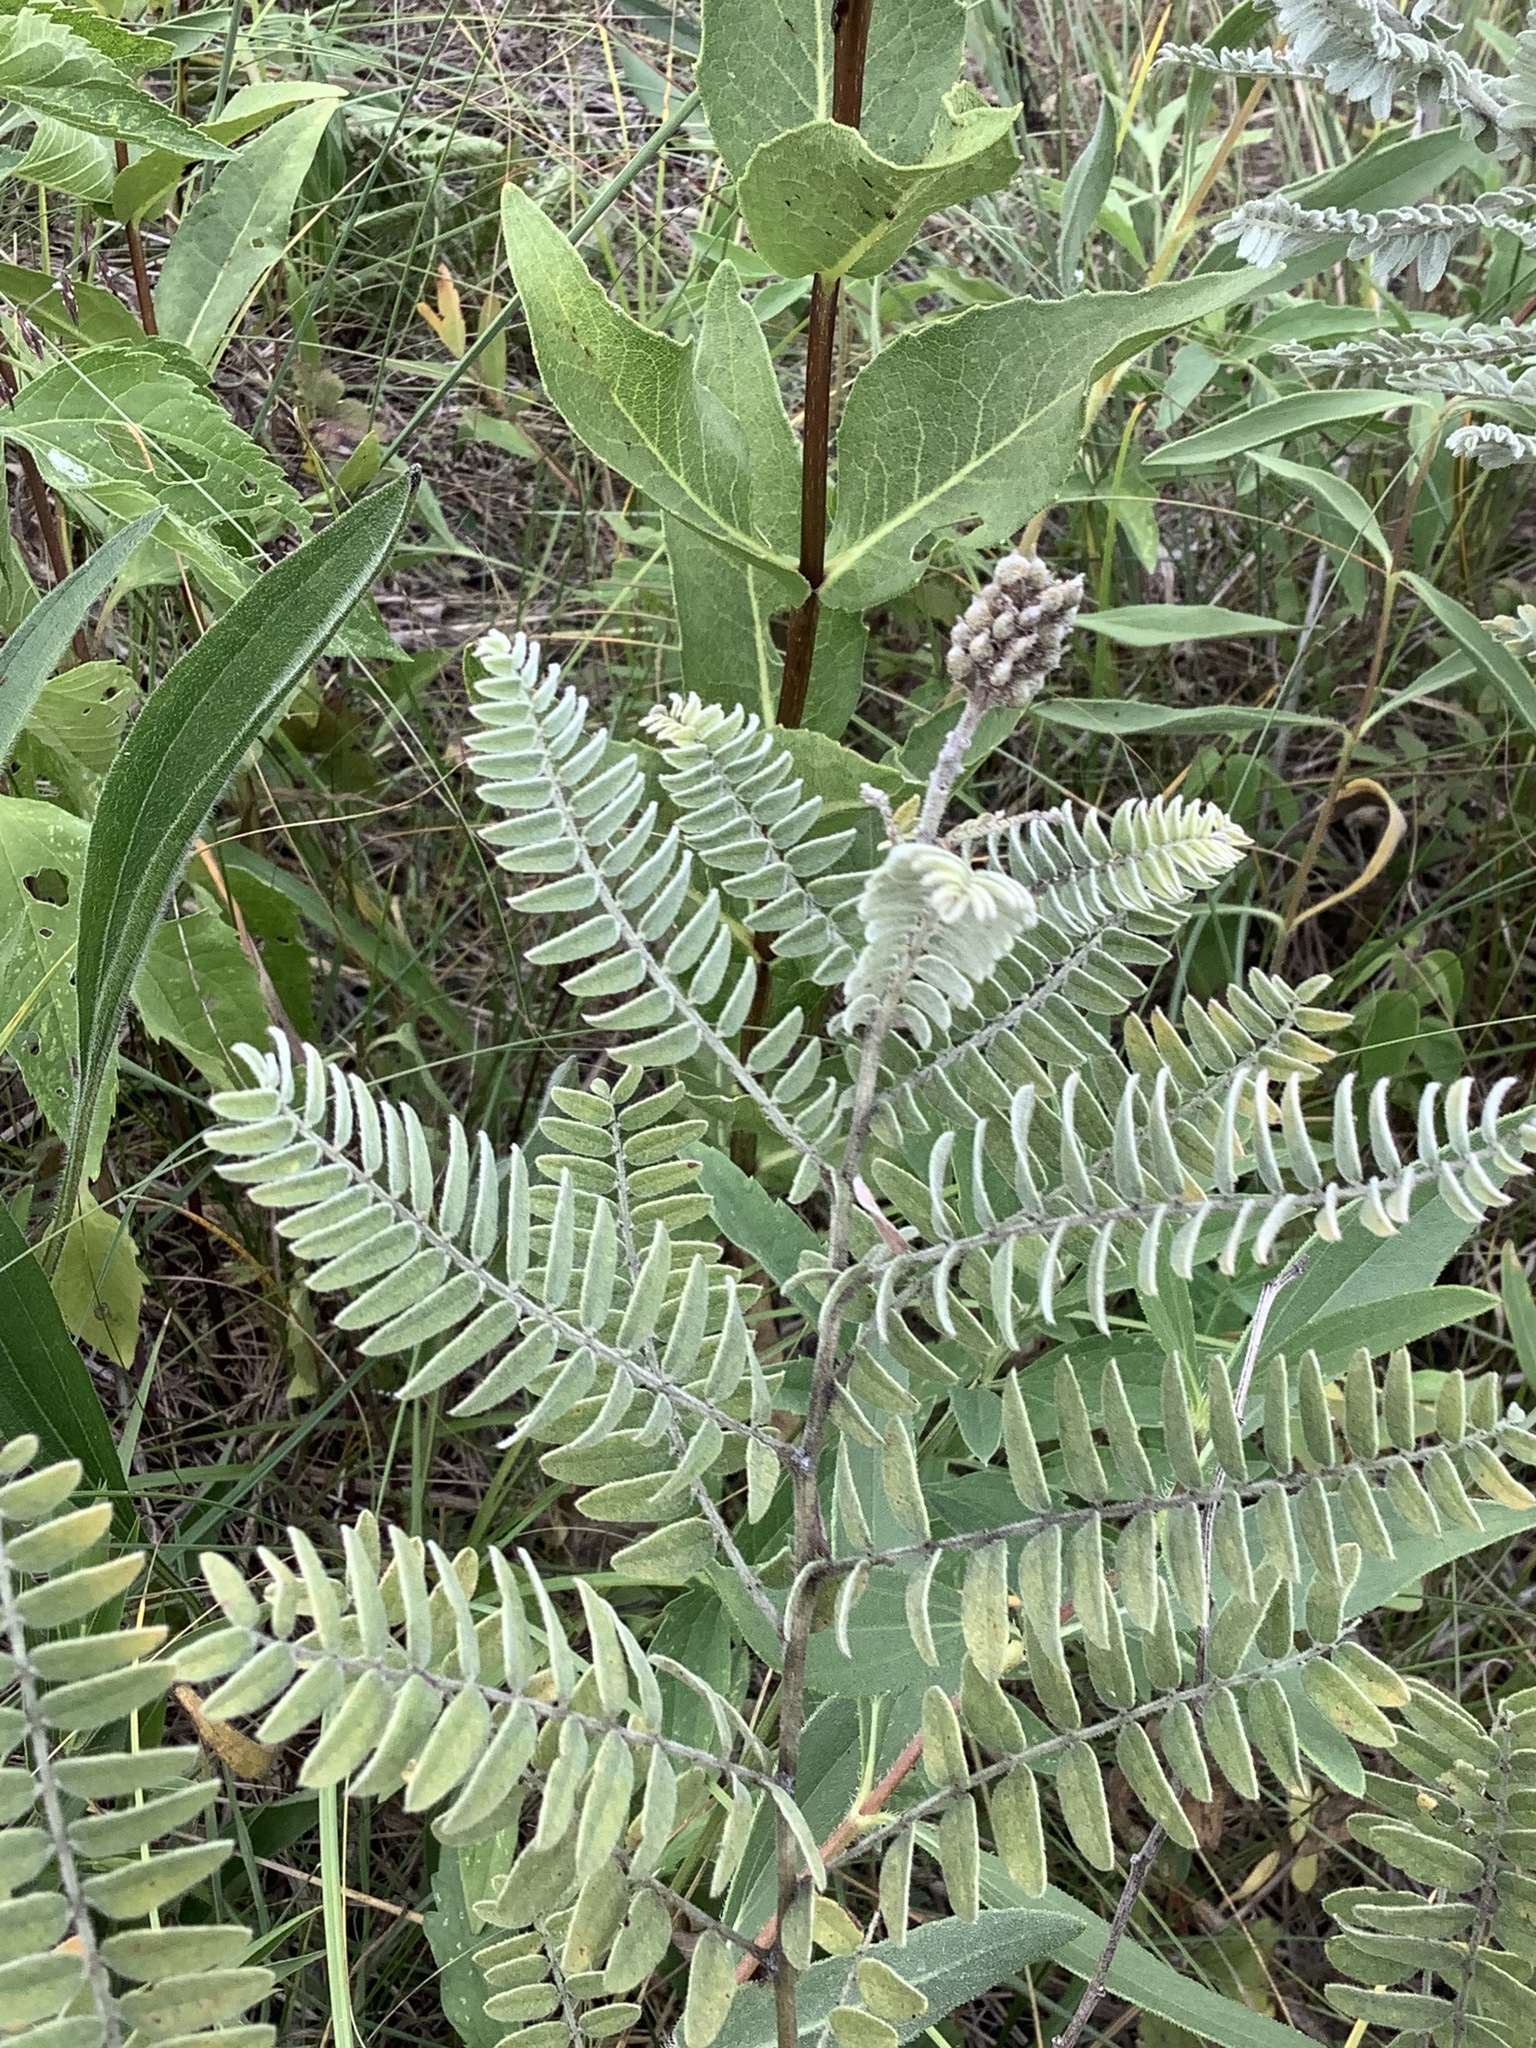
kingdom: Plantae
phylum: Tracheophyta
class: Magnoliopsida
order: Fabales
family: Fabaceae
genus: Amorpha
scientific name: Amorpha canescens
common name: Leadplant
